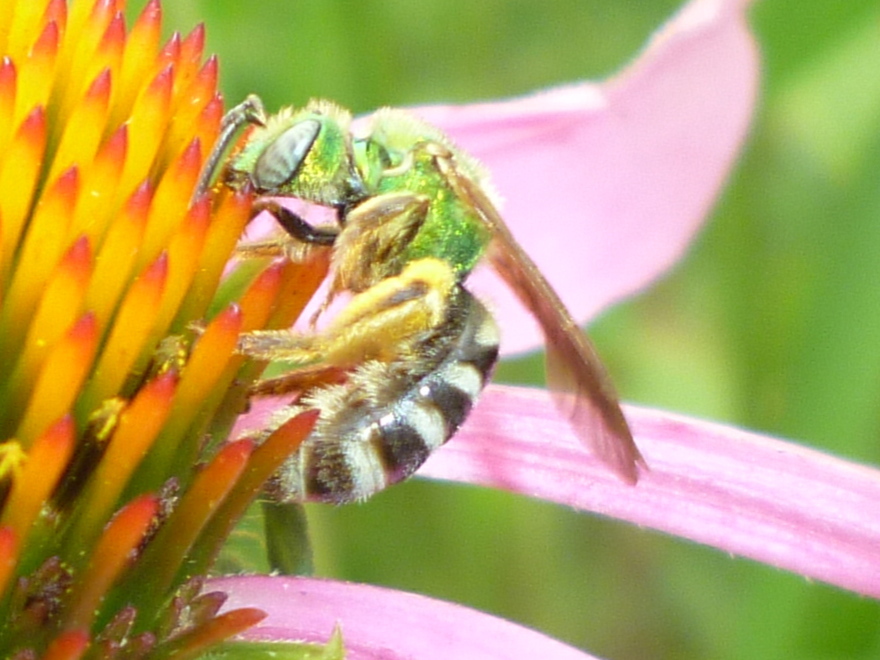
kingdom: Animalia
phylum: Arthropoda
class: Insecta
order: Hymenoptera
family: Halictidae
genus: Agapostemon
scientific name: Agapostemon virescens
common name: Bicolored striped sweat bee
